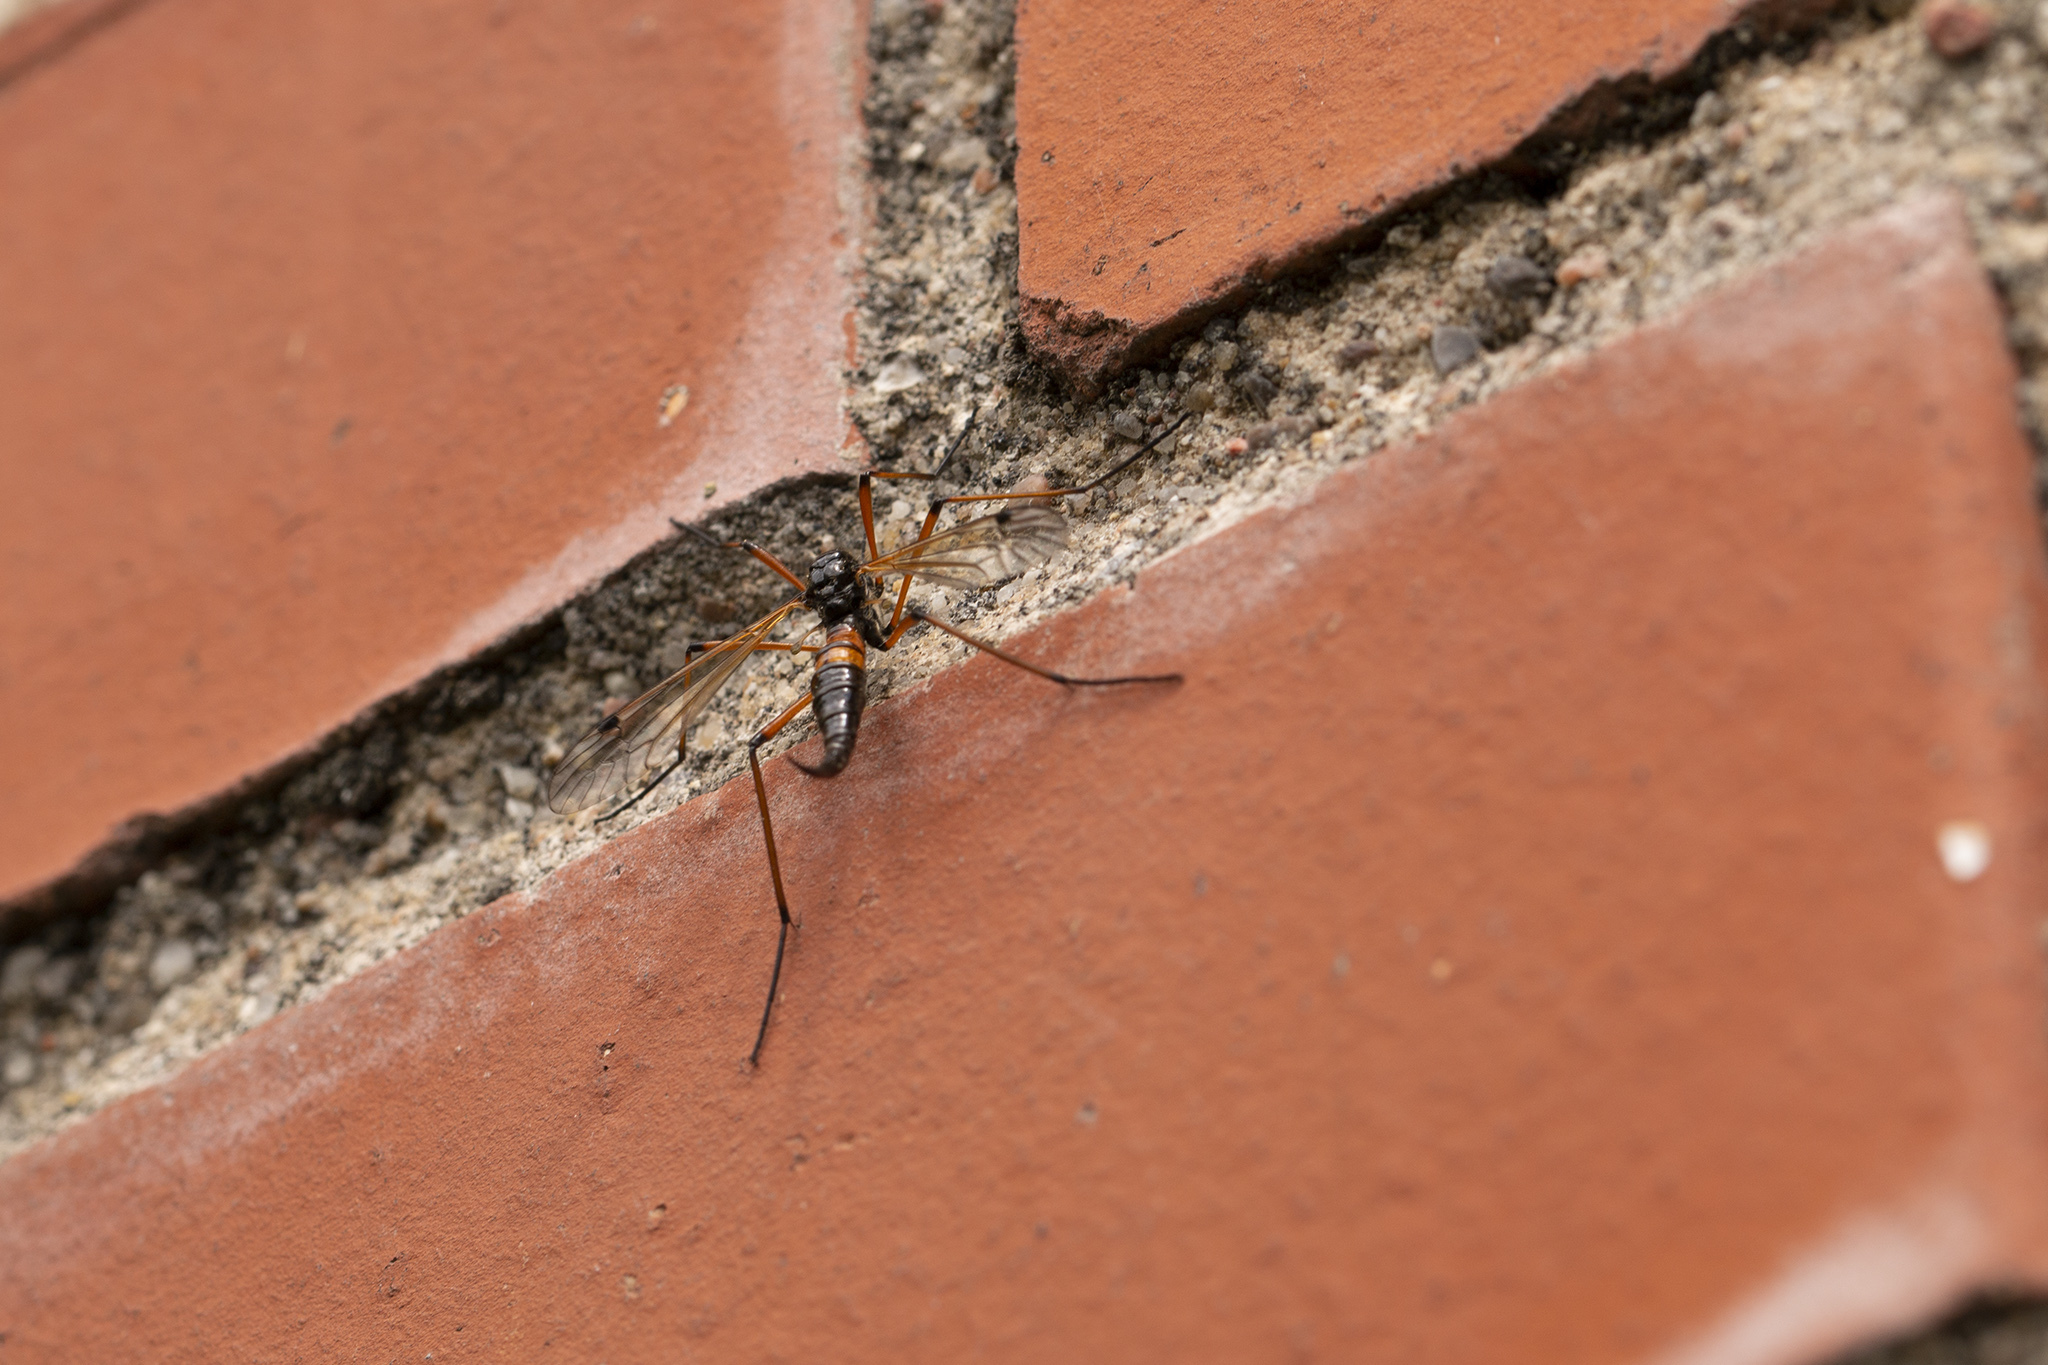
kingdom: Animalia
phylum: Arthropoda
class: Insecta
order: Diptera
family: Tipulidae
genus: Tanyptera
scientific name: Tanyptera nigricornis
